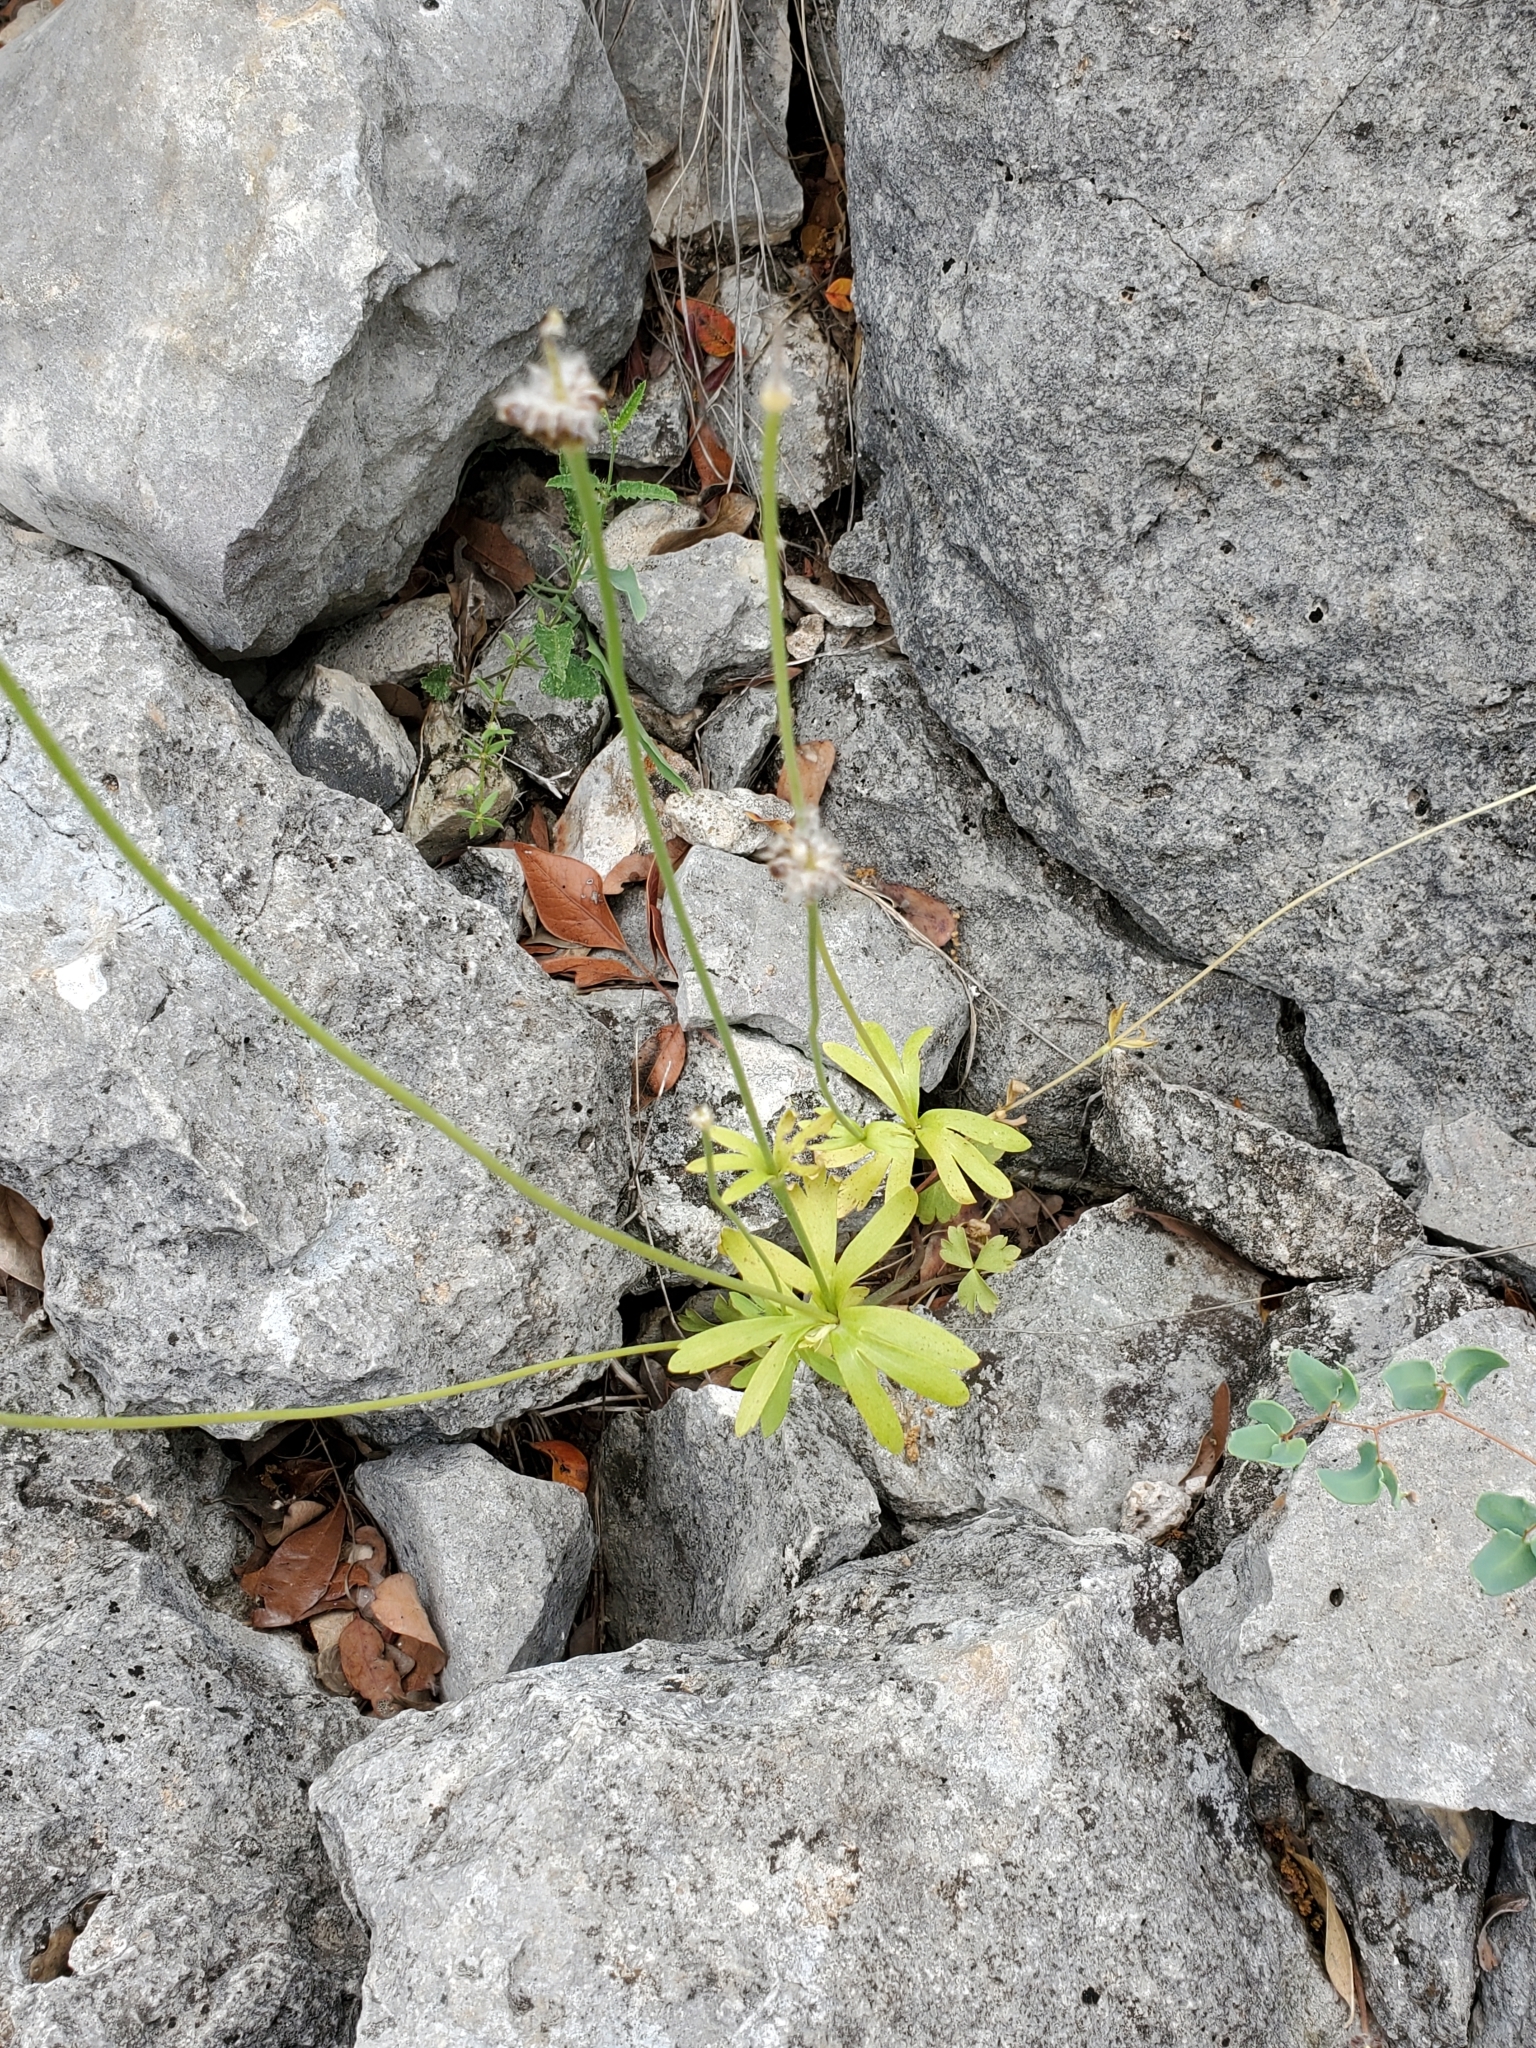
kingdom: Plantae
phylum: Tracheophyta
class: Magnoliopsida
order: Ranunculales
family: Ranunculaceae
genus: Anemone
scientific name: Anemone edwardsiana
